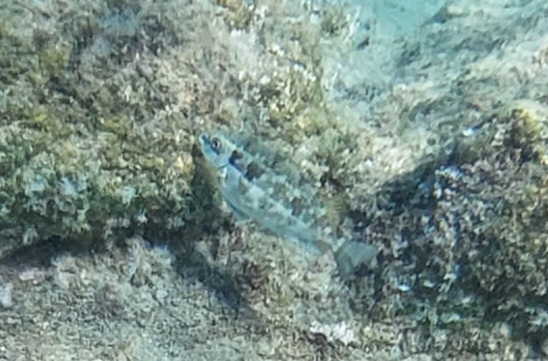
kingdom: Animalia
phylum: Chordata
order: Perciformes
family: Siganidae
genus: Siganus
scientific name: Siganus luridus
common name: Dusky spinefoot
